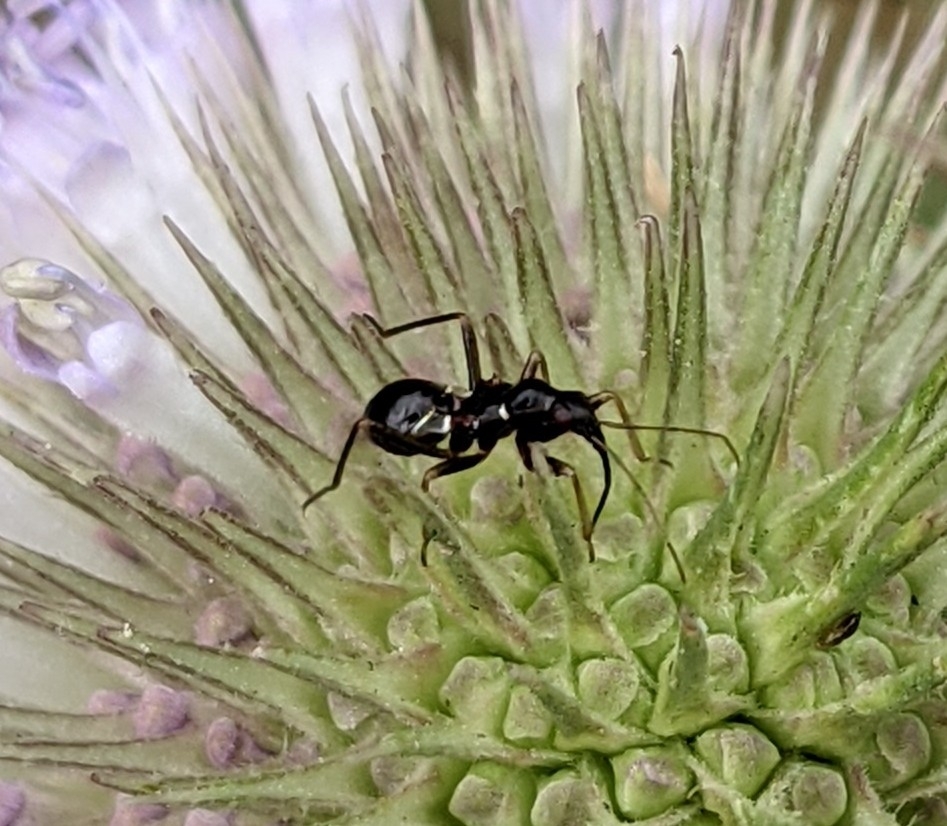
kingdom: Animalia
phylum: Arthropoda
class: Insecta
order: Hemiptera
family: Nabidae
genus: Himacerus
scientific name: Himacerus mirmicoides
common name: Ant damsel bug
